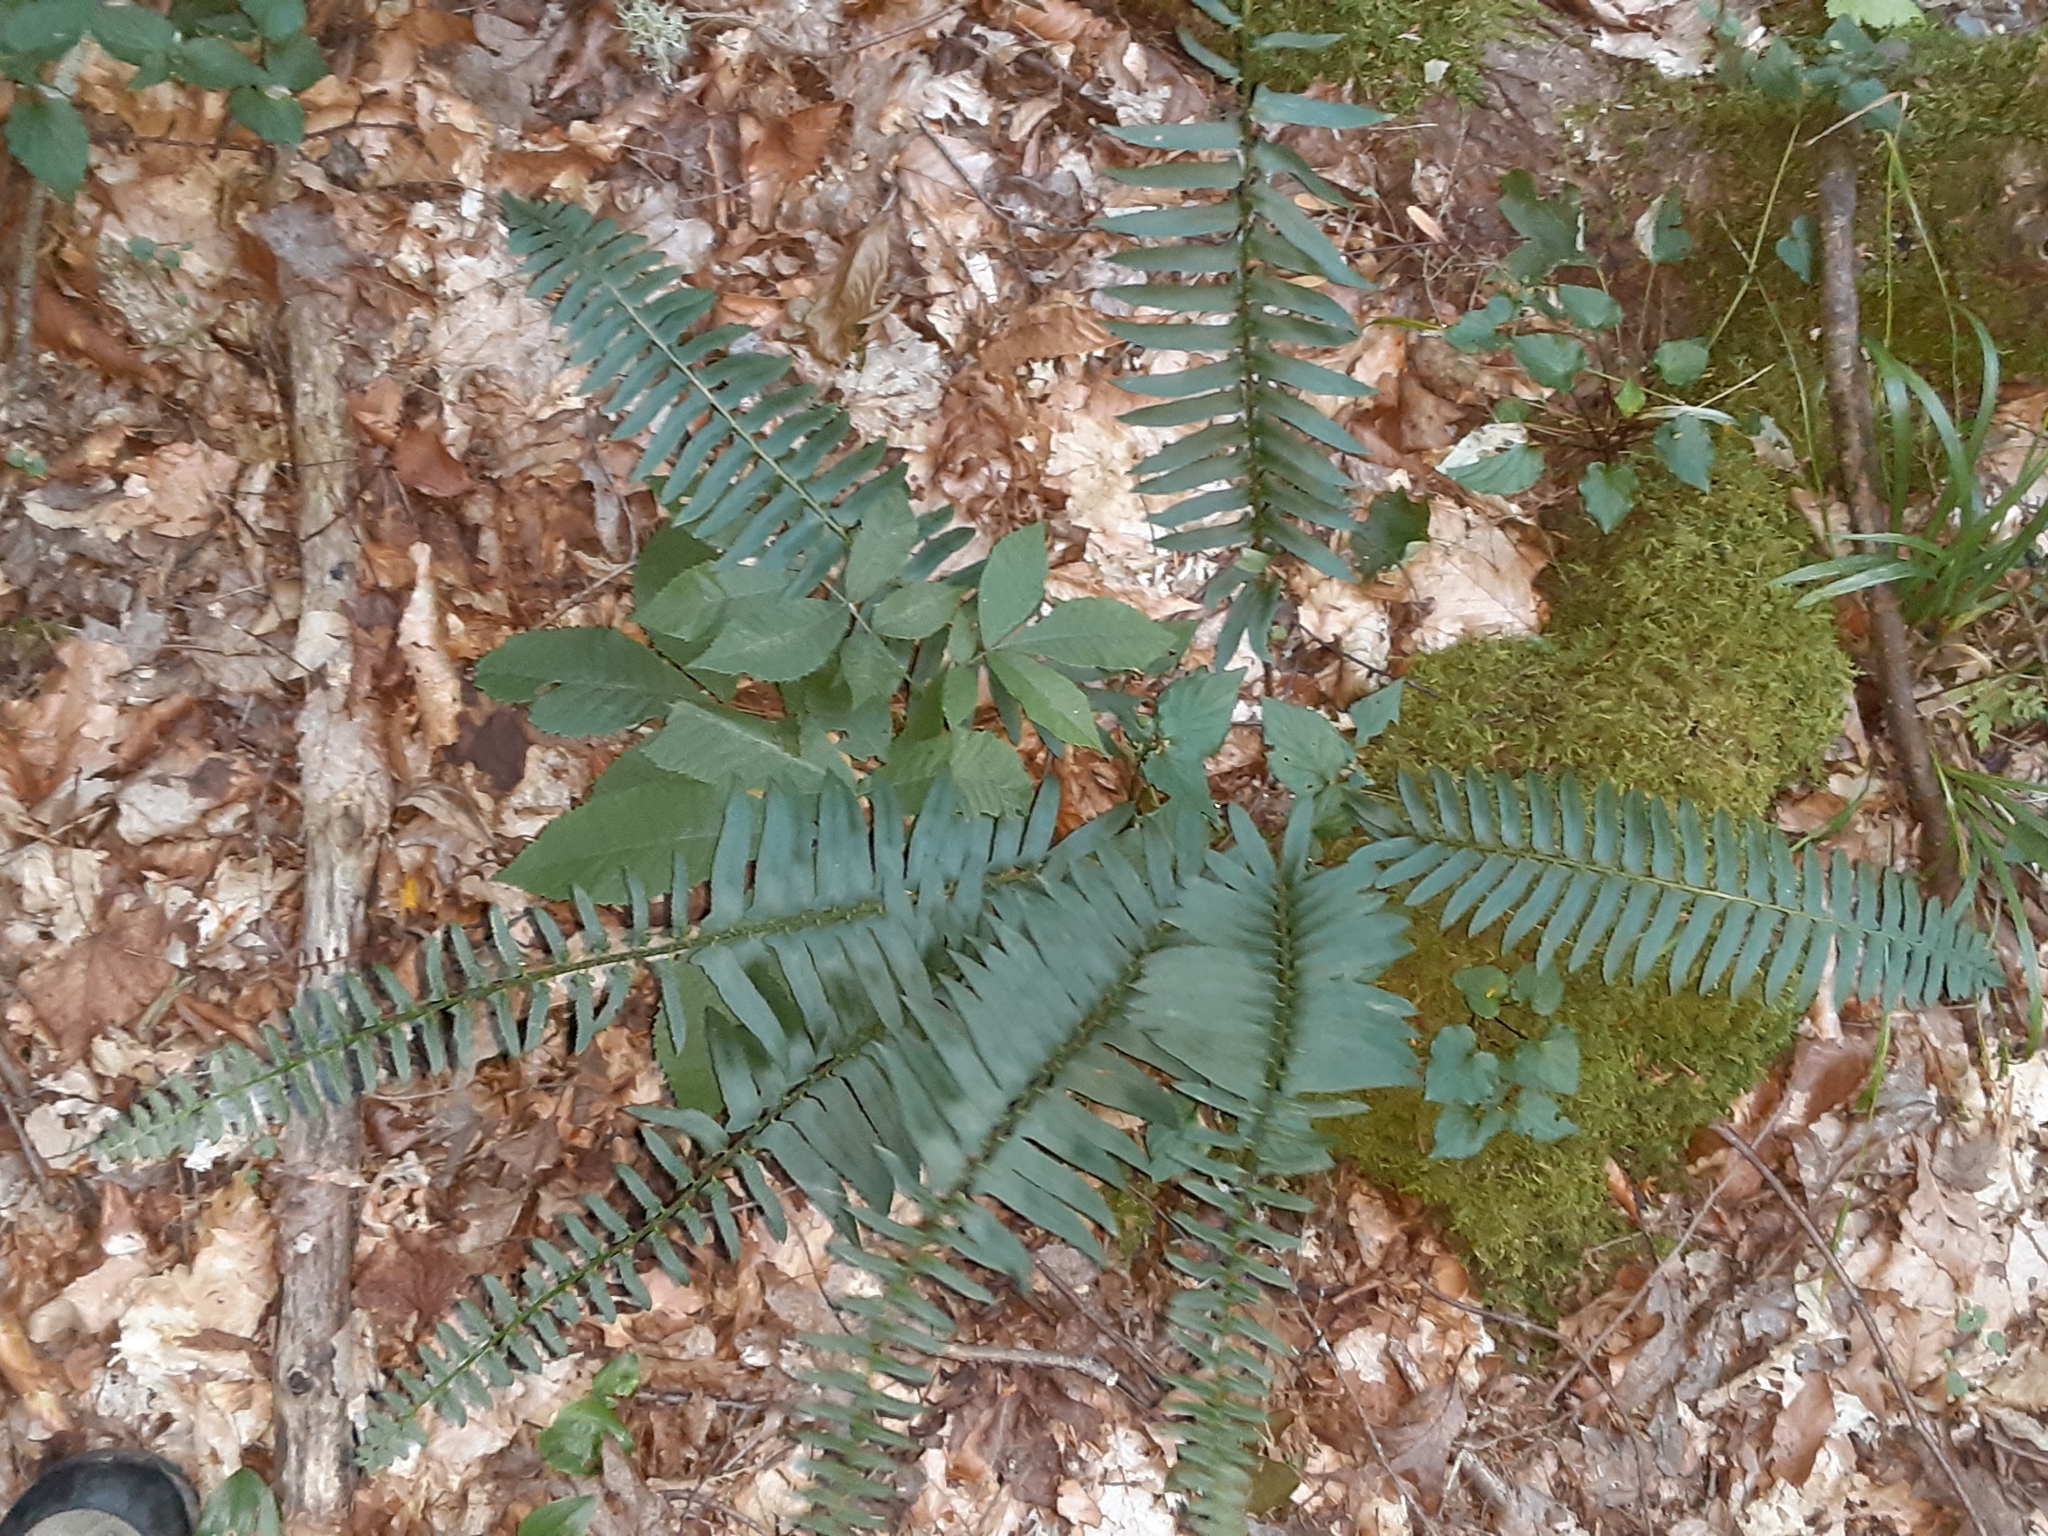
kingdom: Plantae
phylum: Tracheophyta
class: Polypodiopsida
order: Polypodiales
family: Dryopteridaceae
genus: Polystichum
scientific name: Polystichum acrostichoides
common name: Christmas fern
